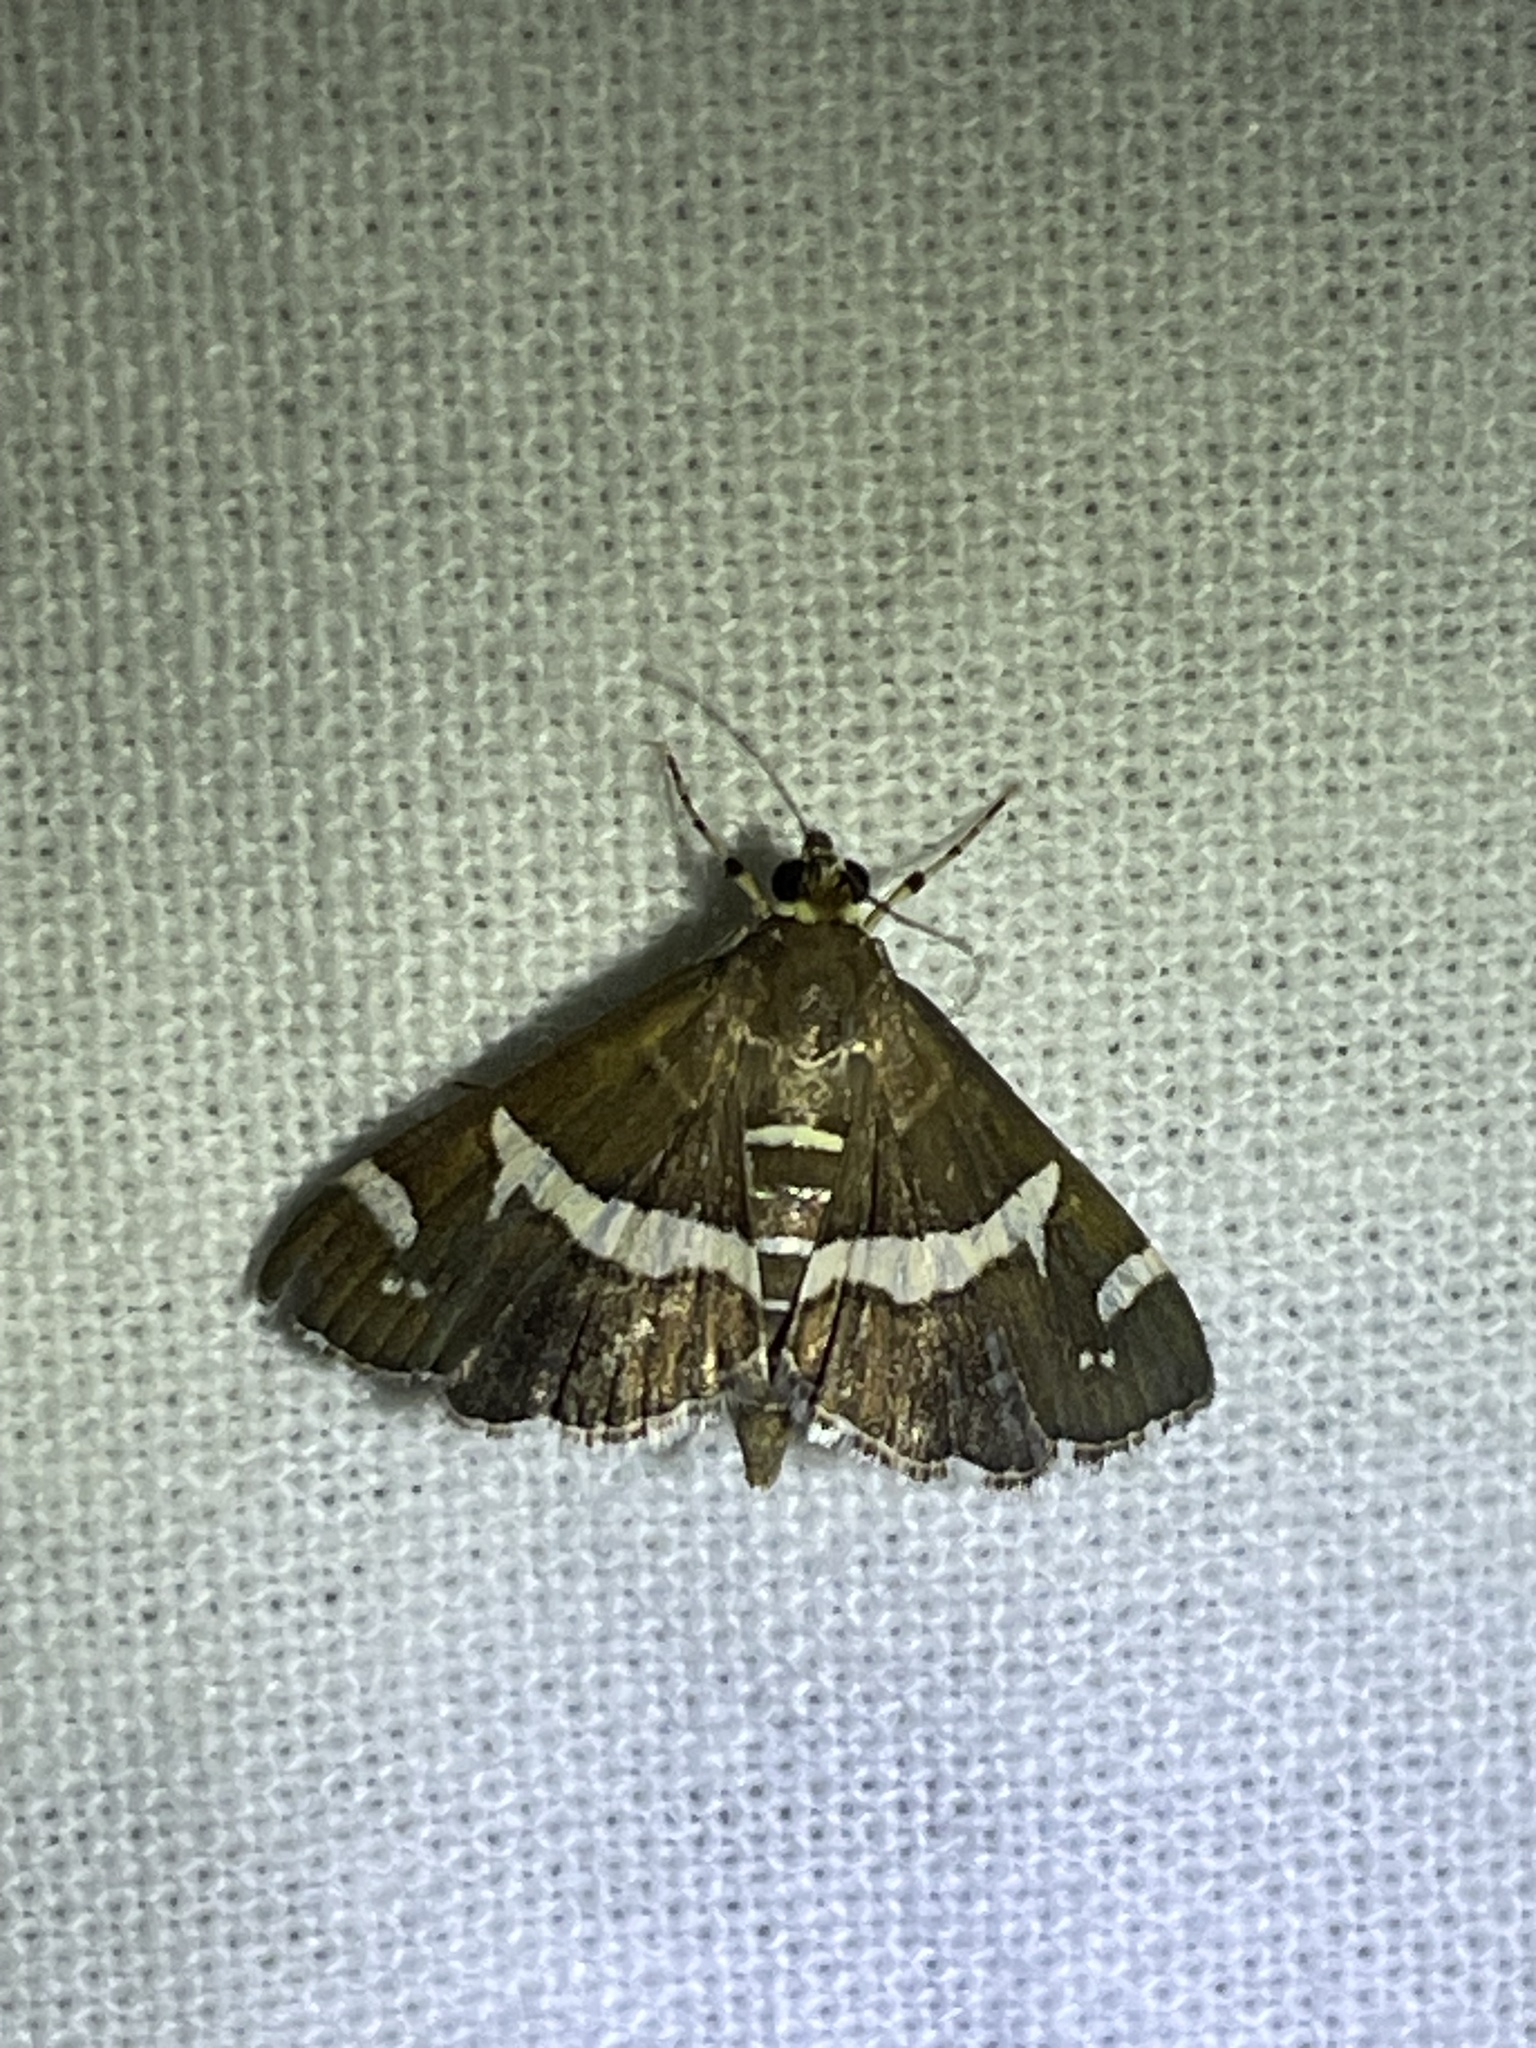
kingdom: Animalia
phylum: Arthropoda
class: Insecta
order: Lepidoptera
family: Crambidae
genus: Spoladea
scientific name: Spoladea recurvalis
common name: Beet webworm moth
